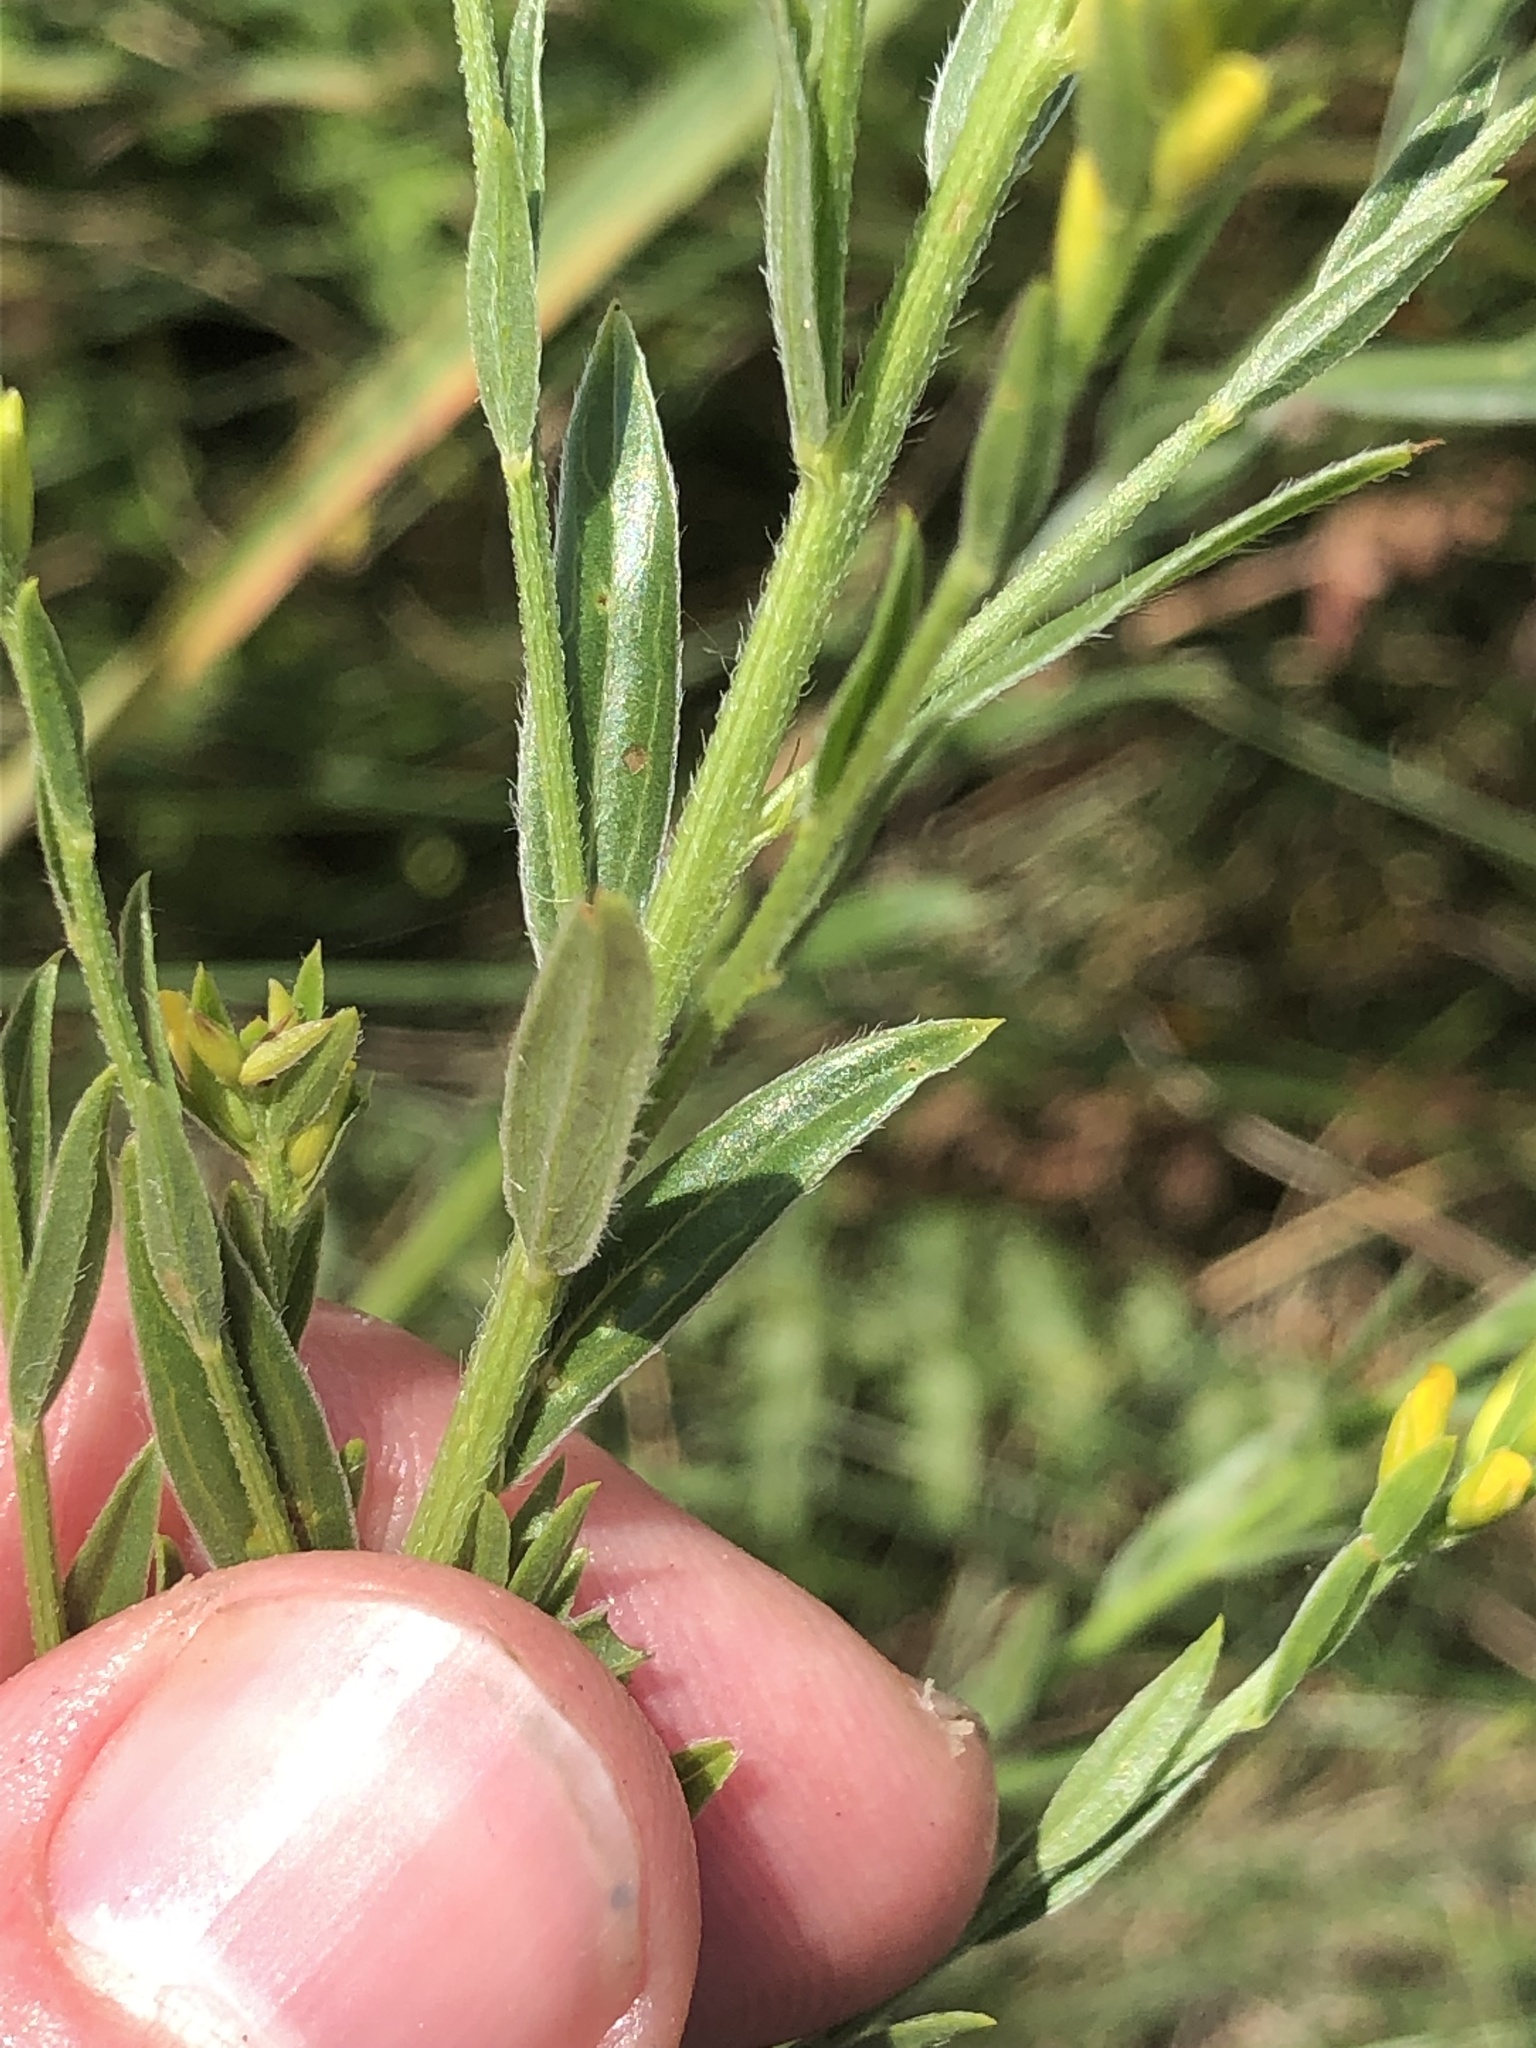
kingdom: Plantae
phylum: Tracheophyta
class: Magnoliopsida
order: Fabales
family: Fabaceae
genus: Genista
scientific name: Genista tinctoria
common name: Dyer's greenweed
